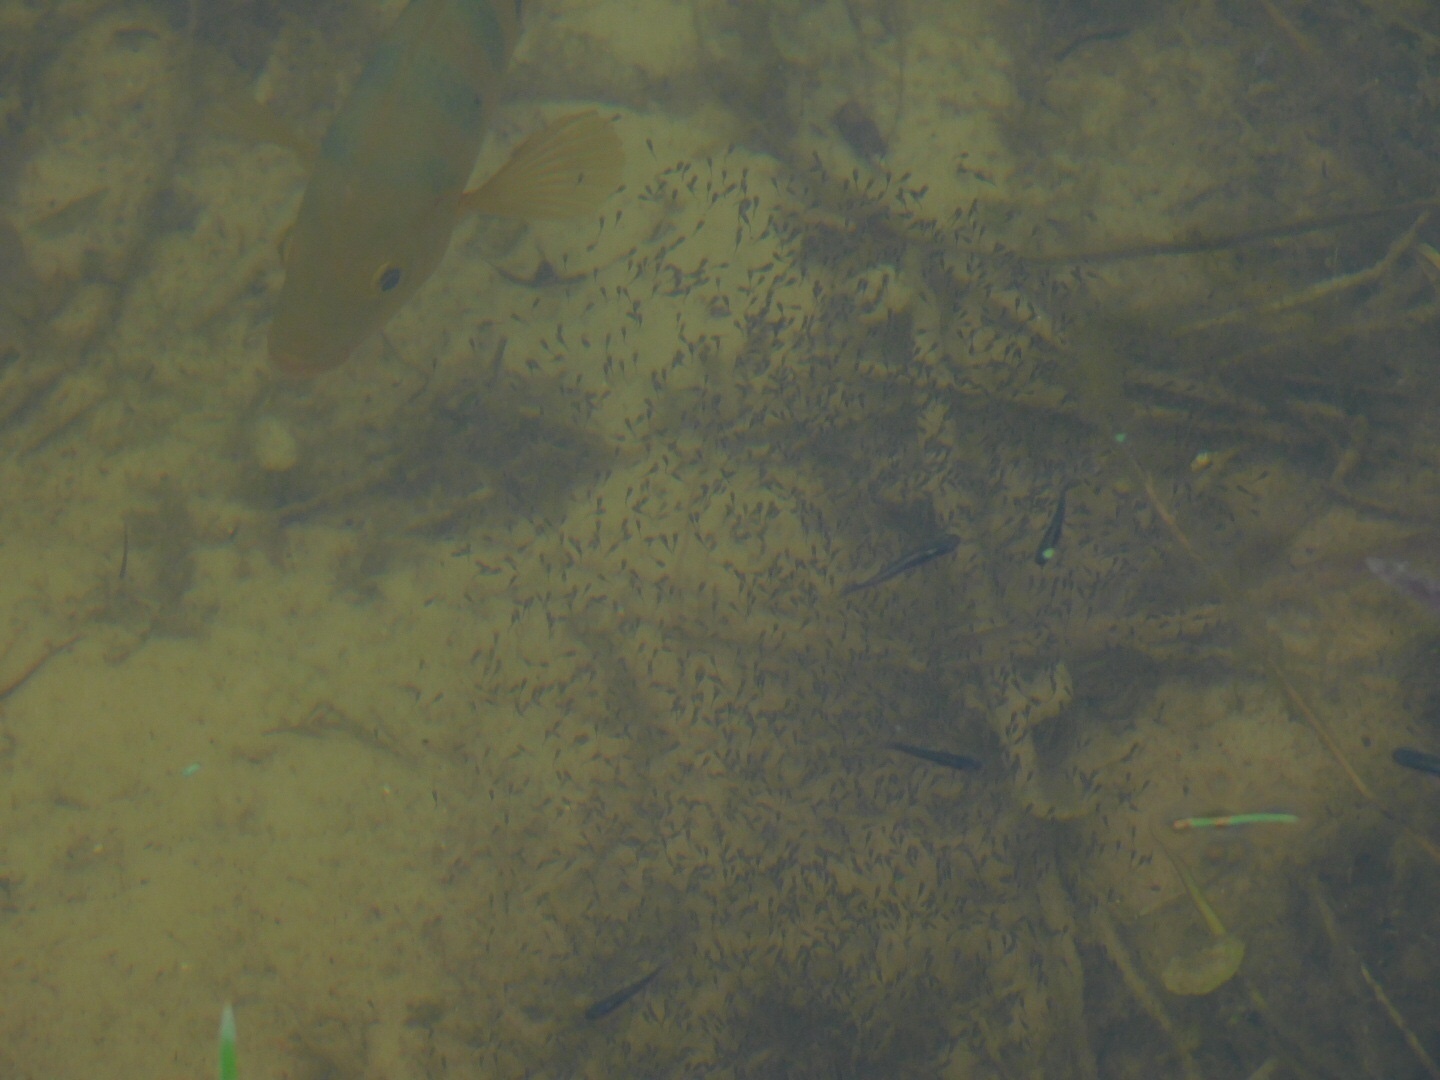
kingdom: Animalia
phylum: Chordata
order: Perciformes
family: Cichlidae
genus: Mayaheros
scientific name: Mayaheros urophthalmus
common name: Mayan cichlid
